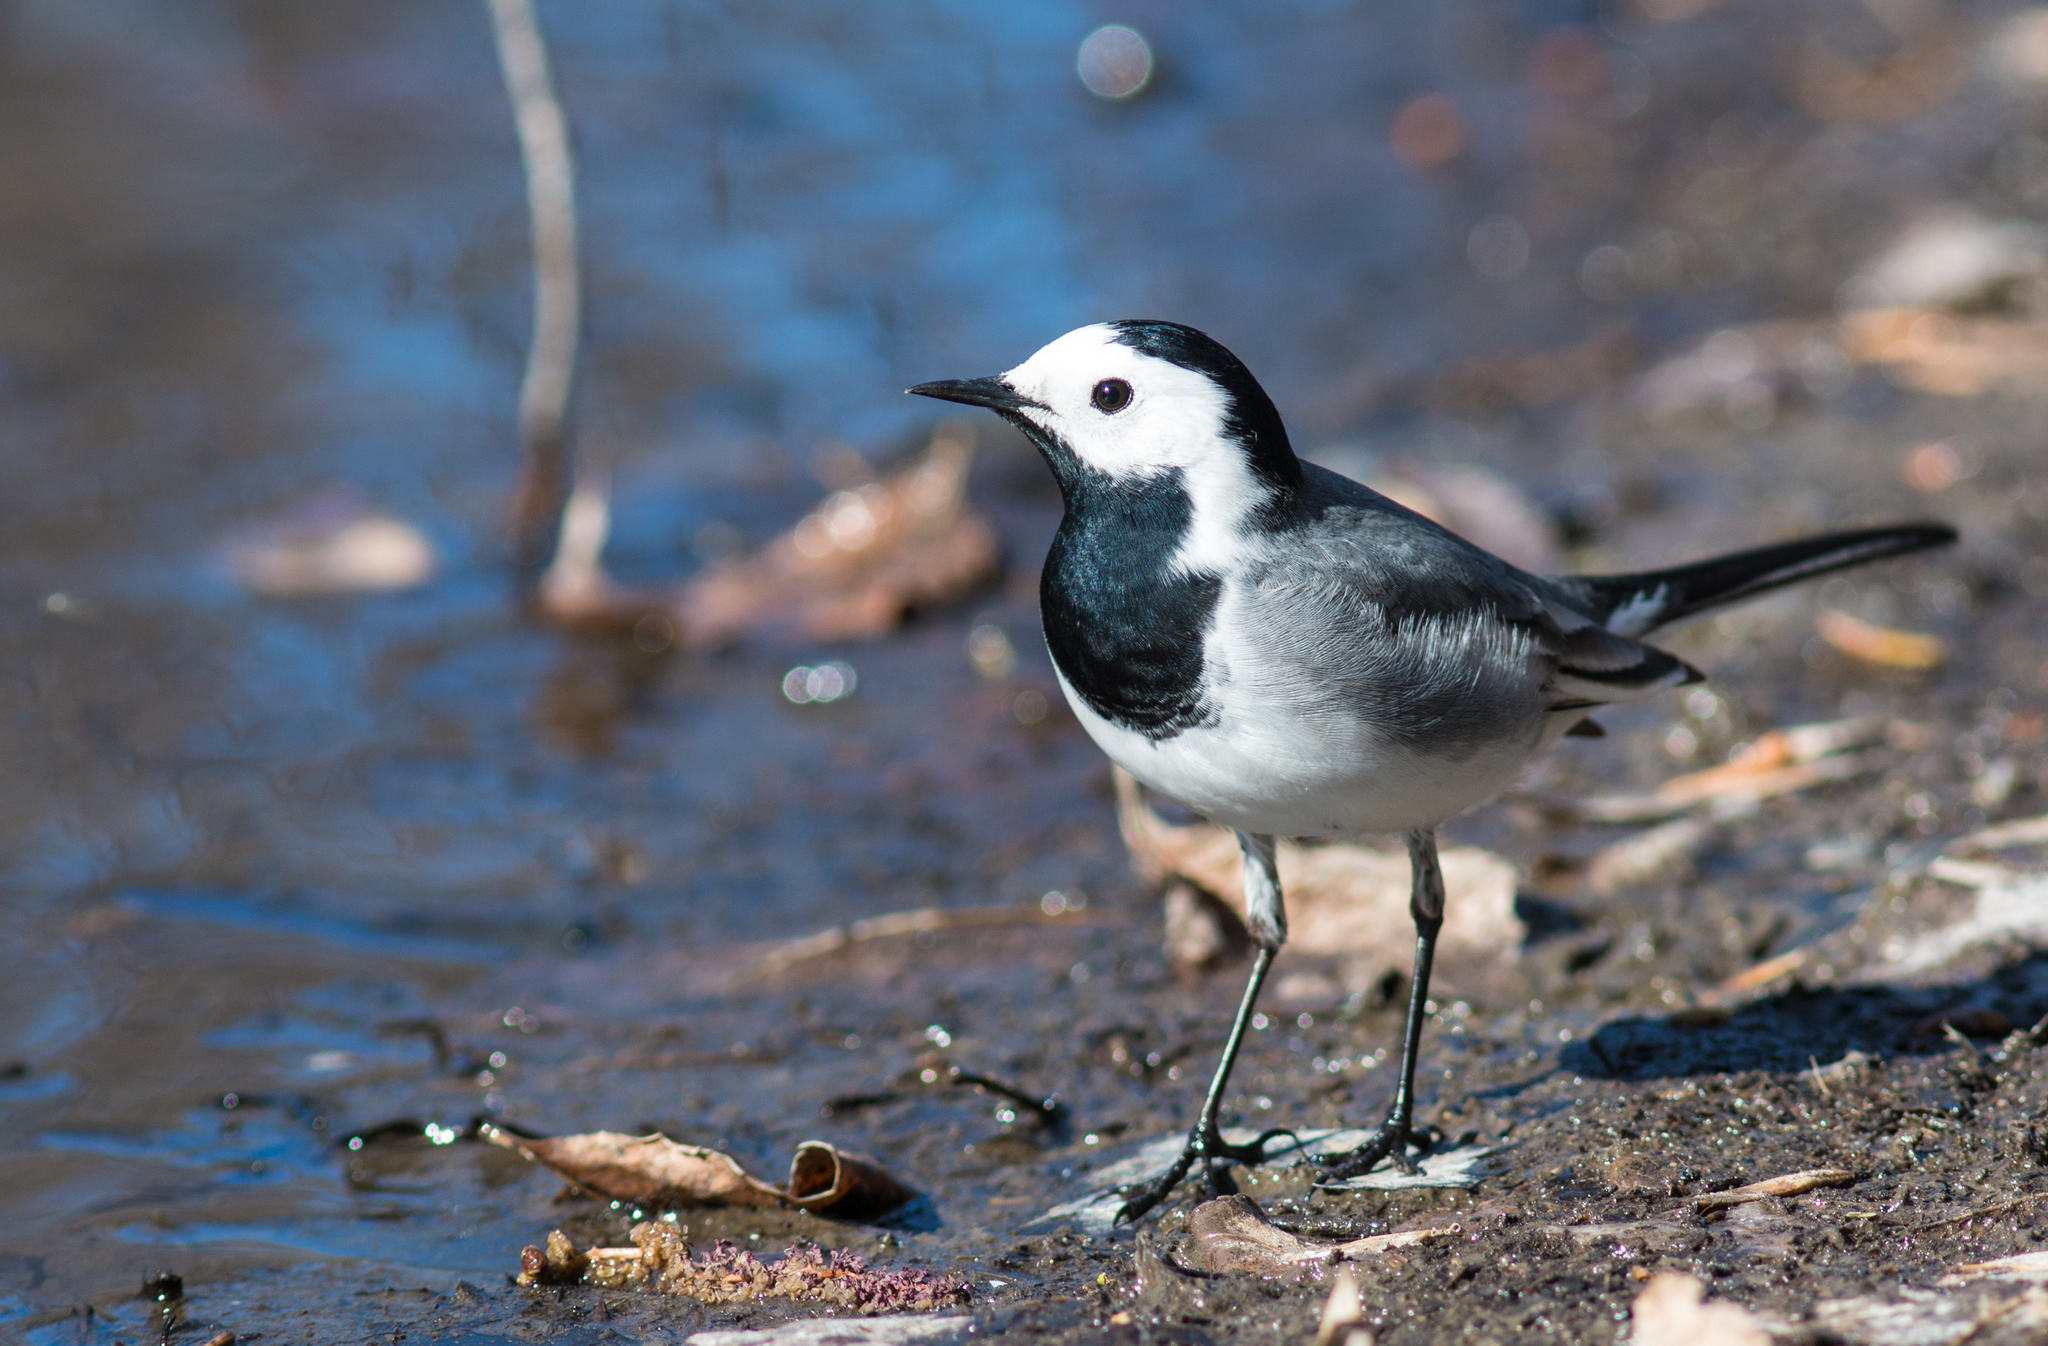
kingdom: Animalia
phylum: Chordata
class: Aves
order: Passeriformes
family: Motacillidae
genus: Motacilla
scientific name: Motacilla alba
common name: White wagtail
